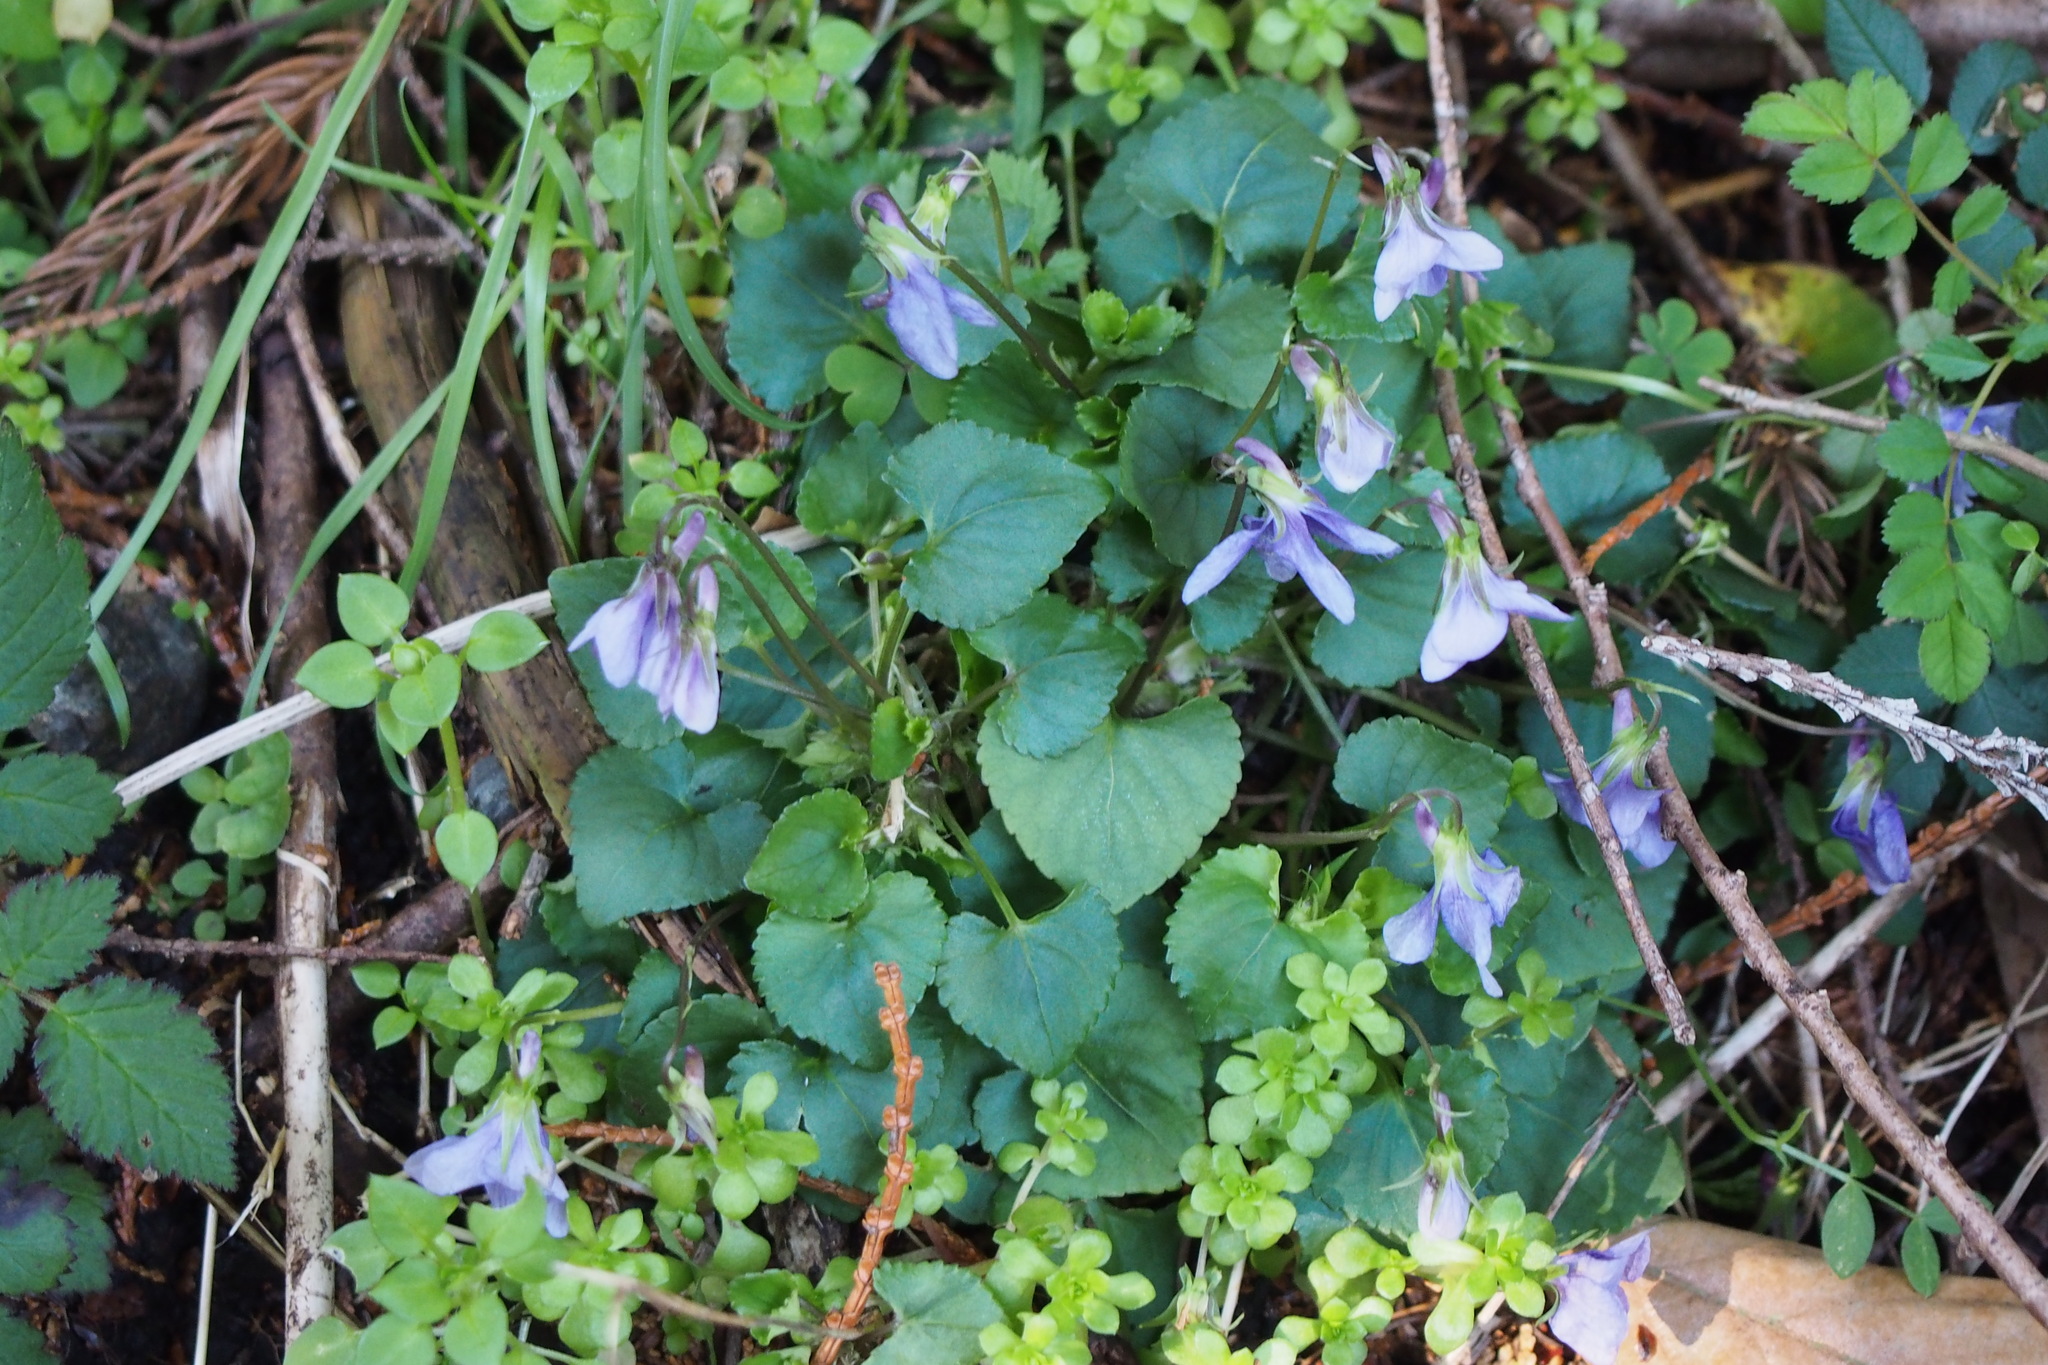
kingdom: Plantae
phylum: Tracheophyta
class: Magnoliopsida
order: Malpighiales
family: Violaceae
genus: Viola
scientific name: Viola grypoceras
